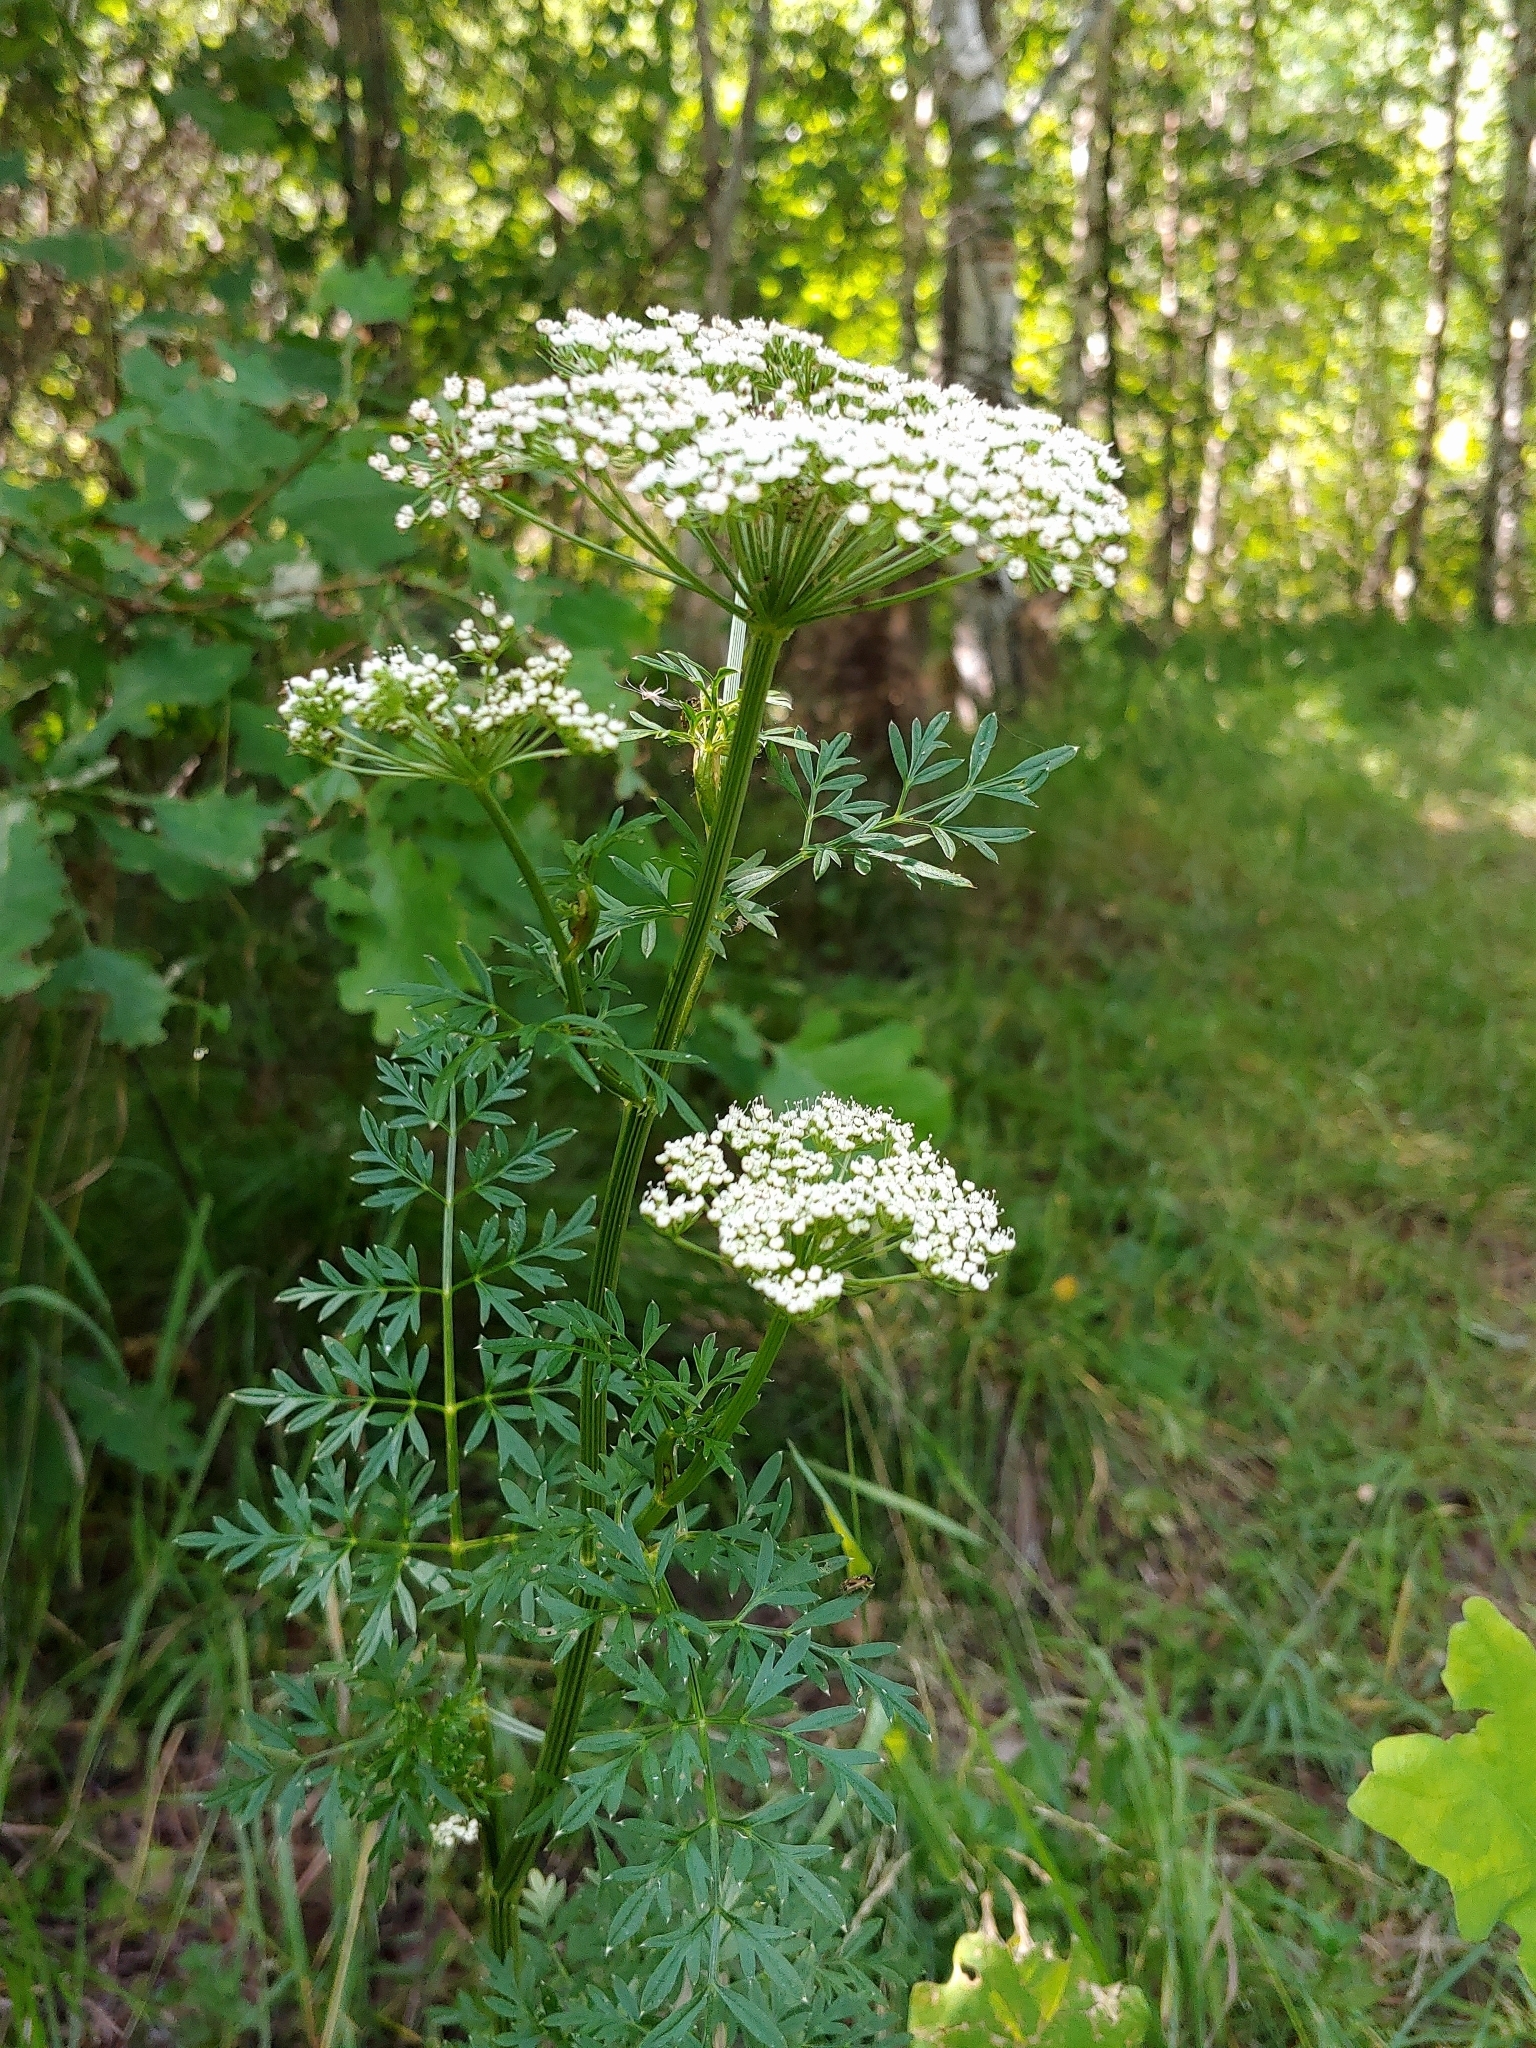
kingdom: Plantae
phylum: Tracheophyta
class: Magnoliopsida
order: Apiales
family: Apiaceae
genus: Selinum
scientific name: Selinum carvifolia
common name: Cambridge milk-parsley
